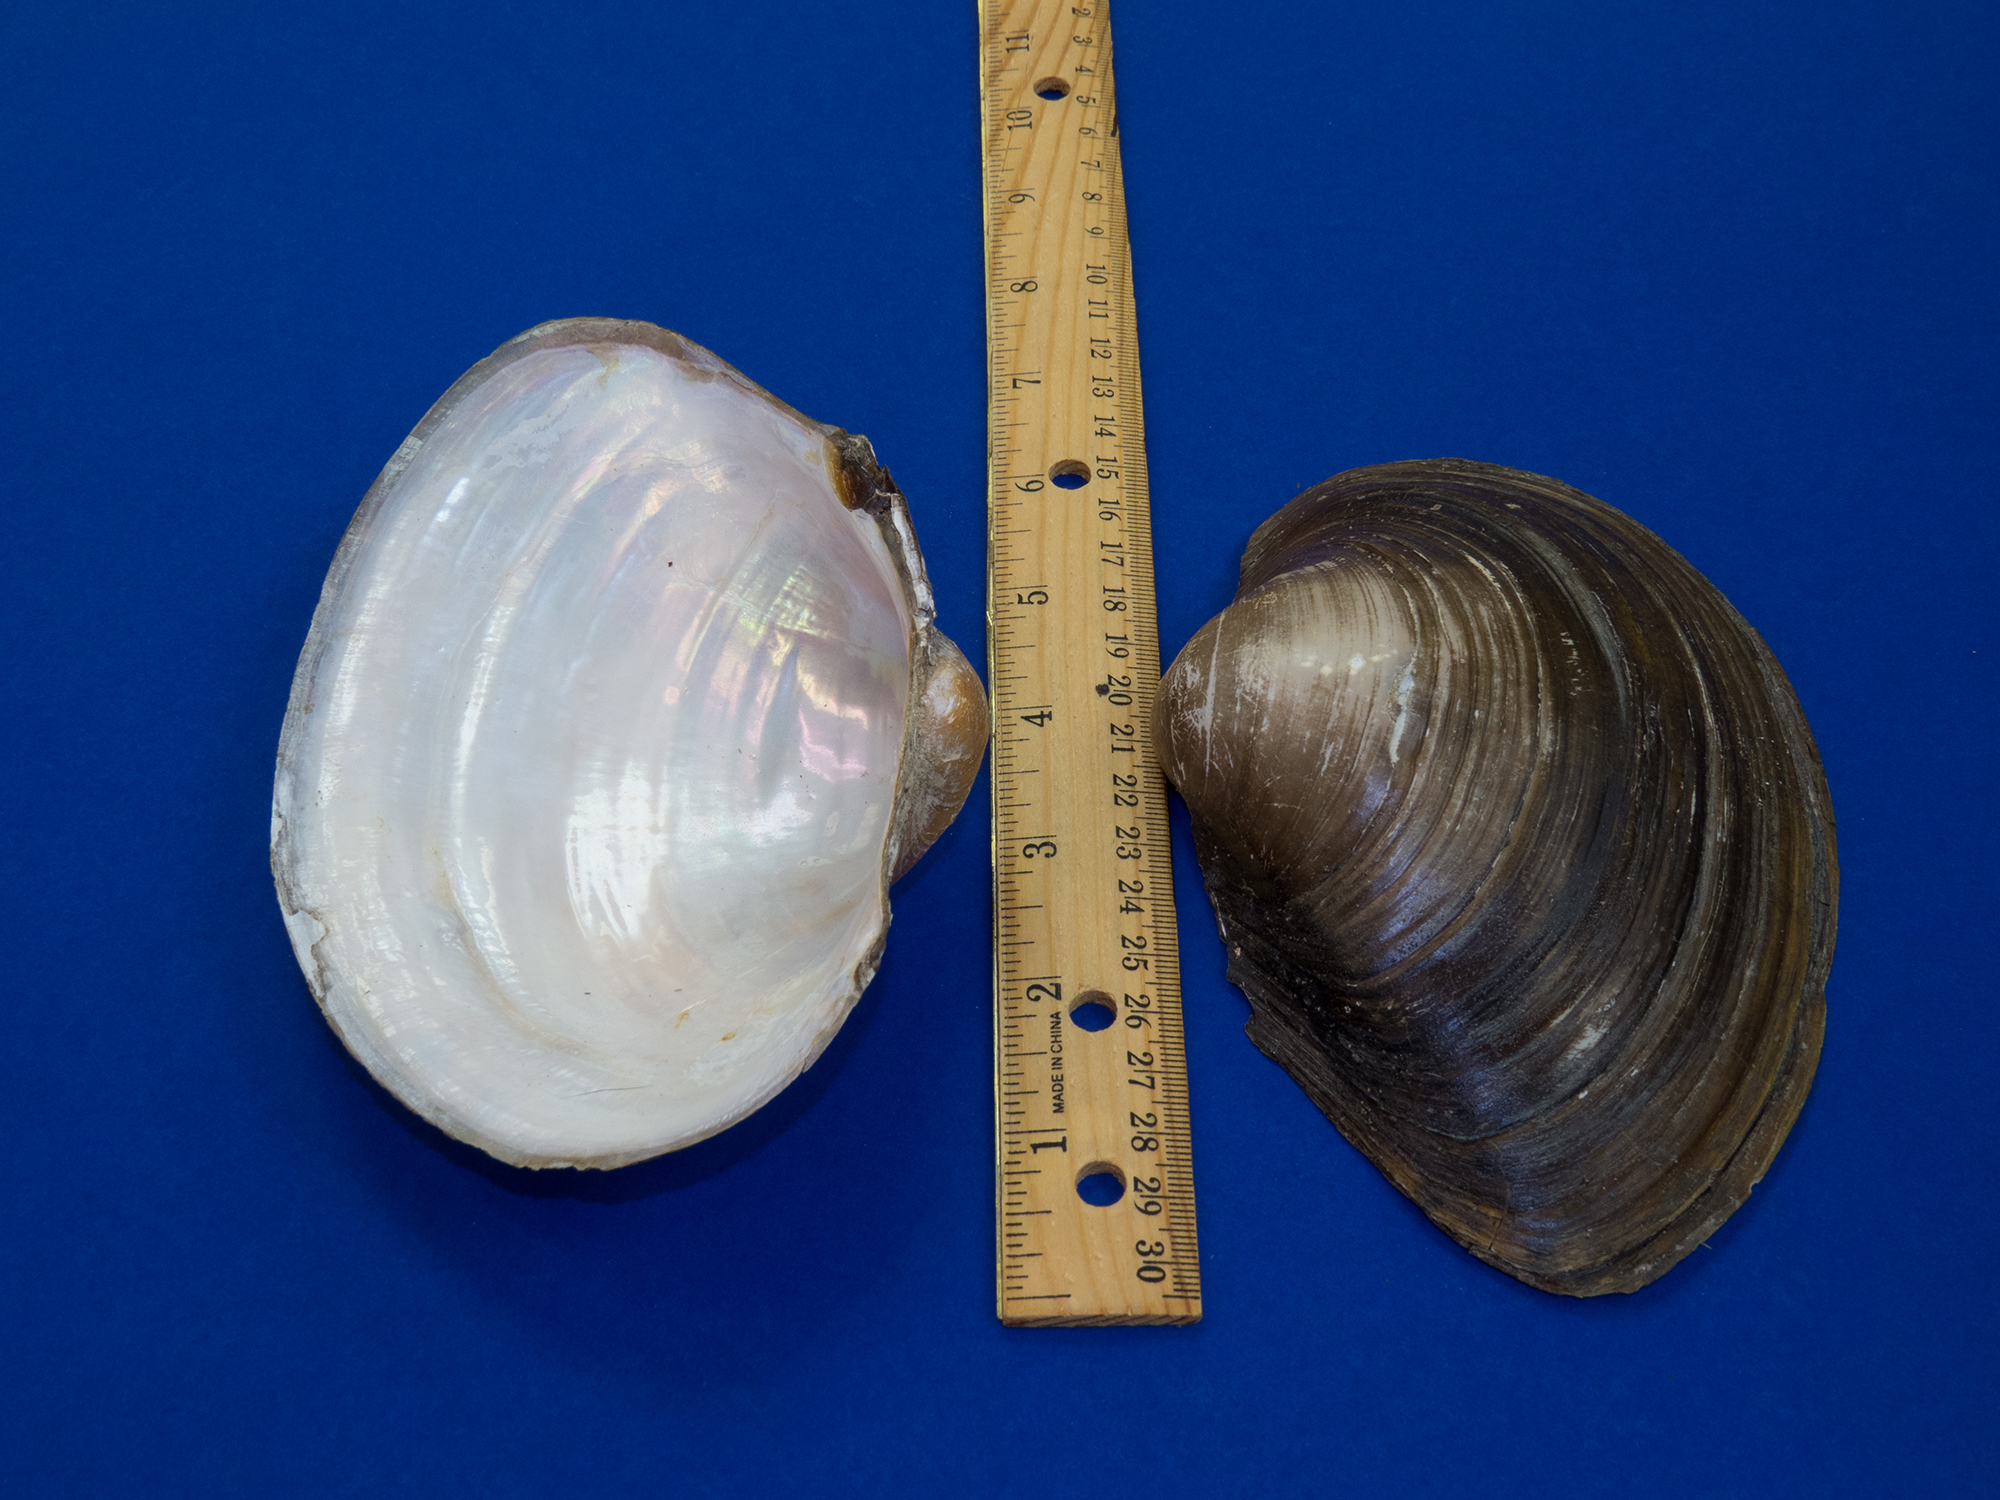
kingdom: Animalia
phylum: Mollusca
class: Bivalvia
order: Unionida
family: Unionidae
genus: Pyganodon
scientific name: Pyganodon grandis
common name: Giant floater
